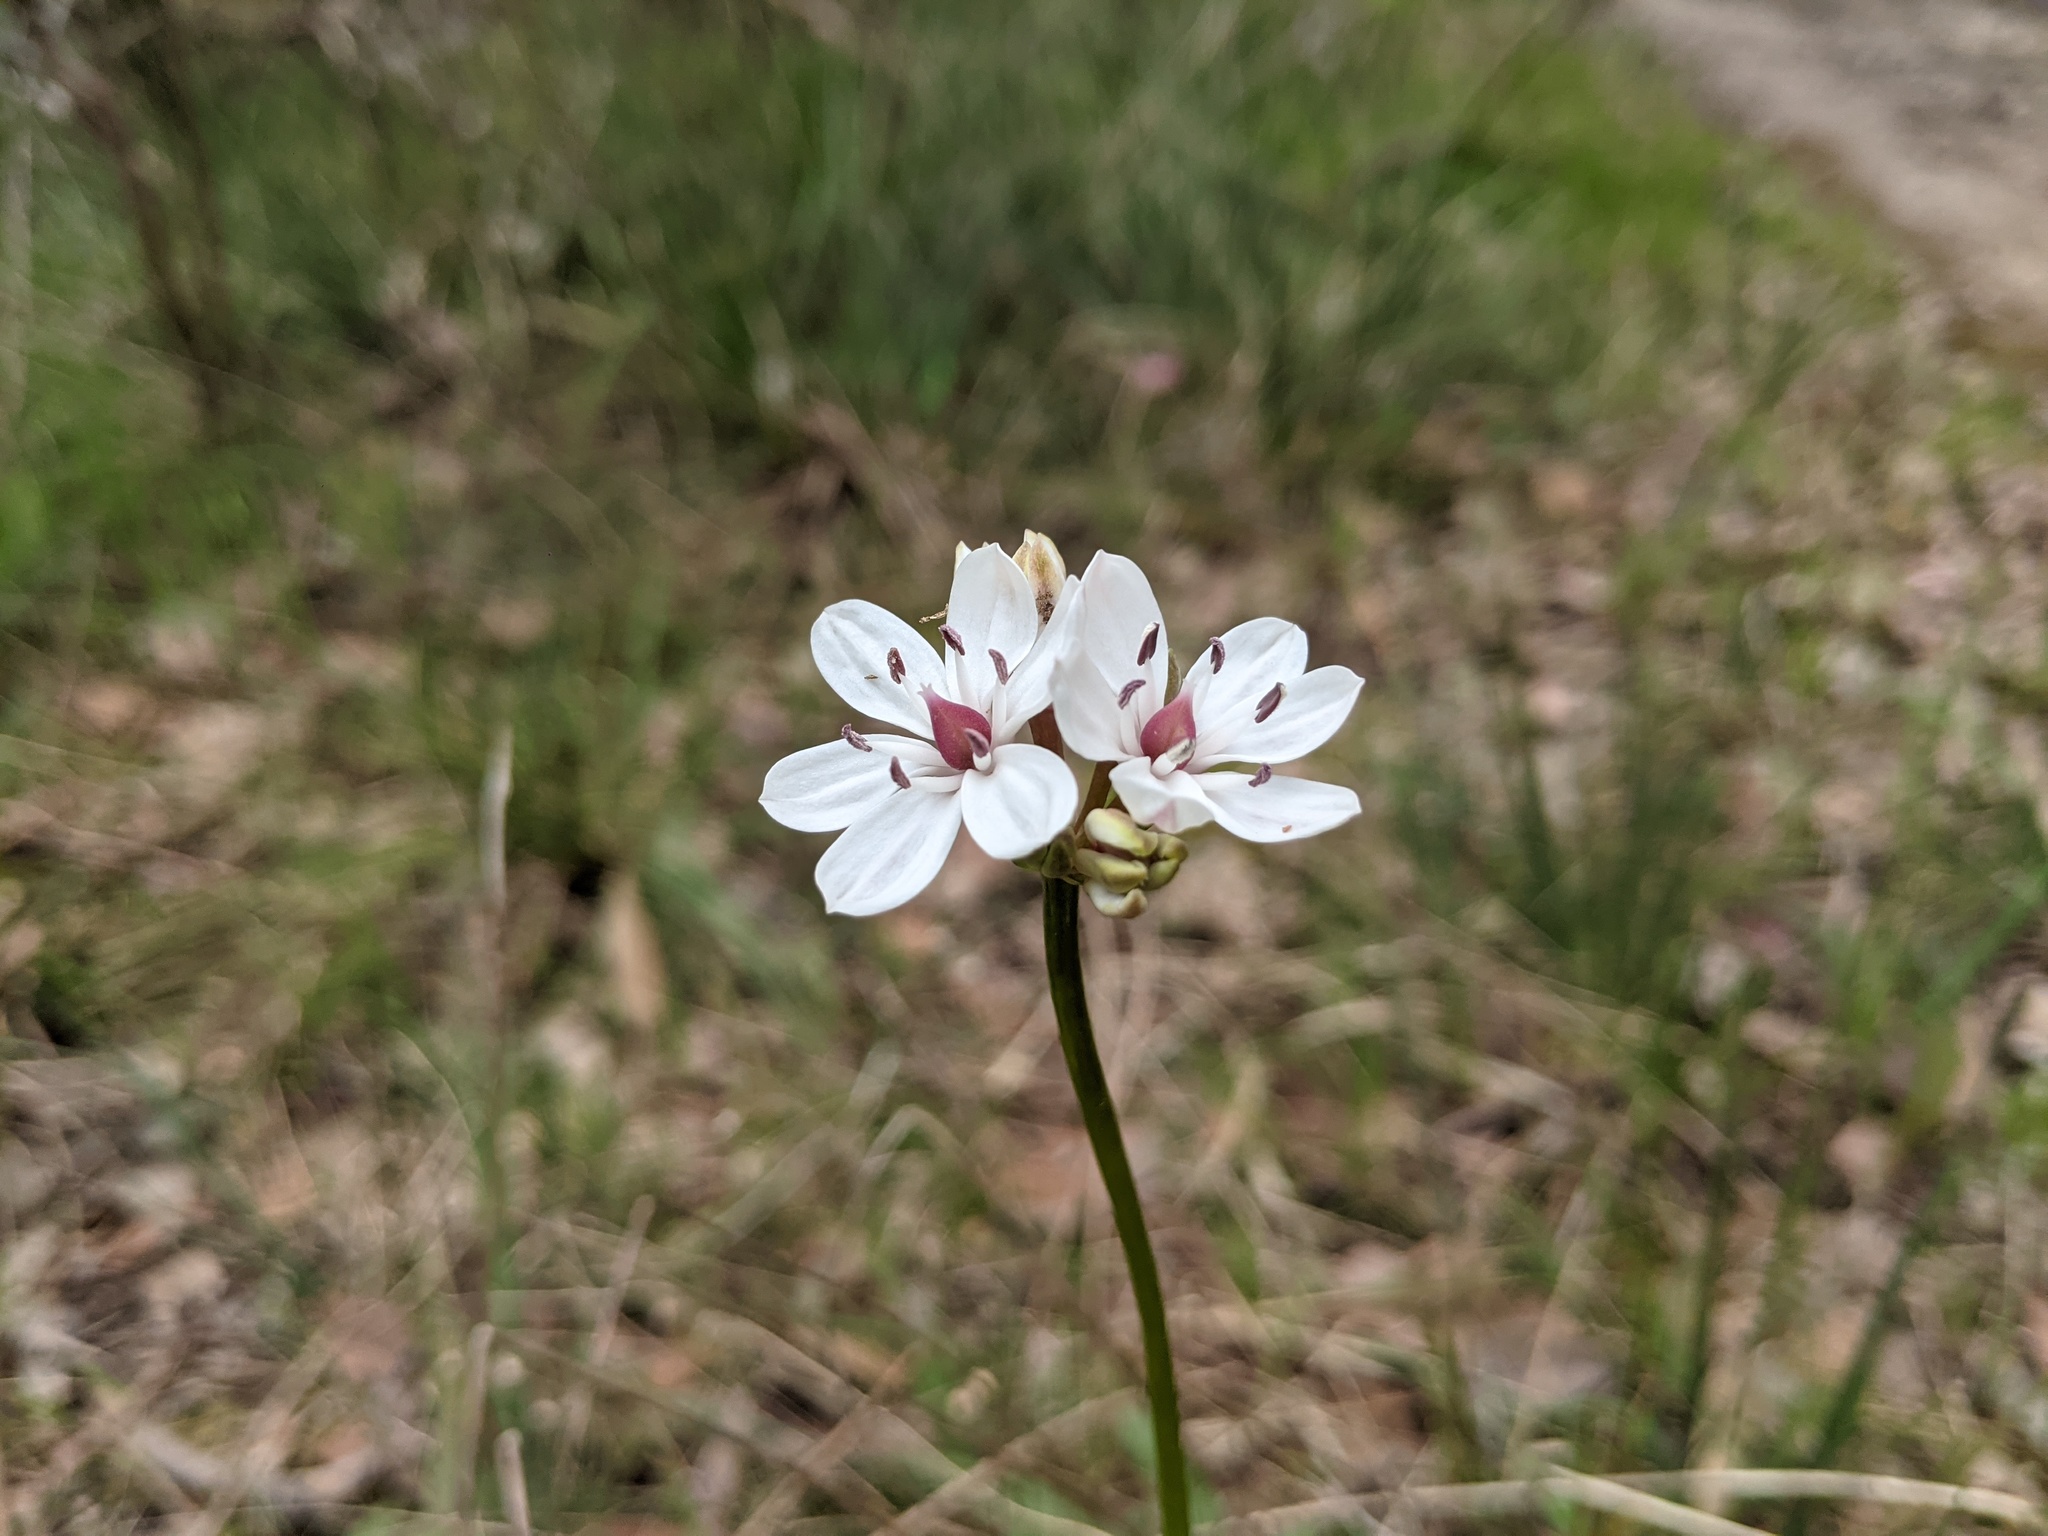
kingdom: Plantae
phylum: Tracheophyta
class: Liliopsida
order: Liliales
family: Colchicaceae
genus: Burchardia
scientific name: Burchardia umbellata
